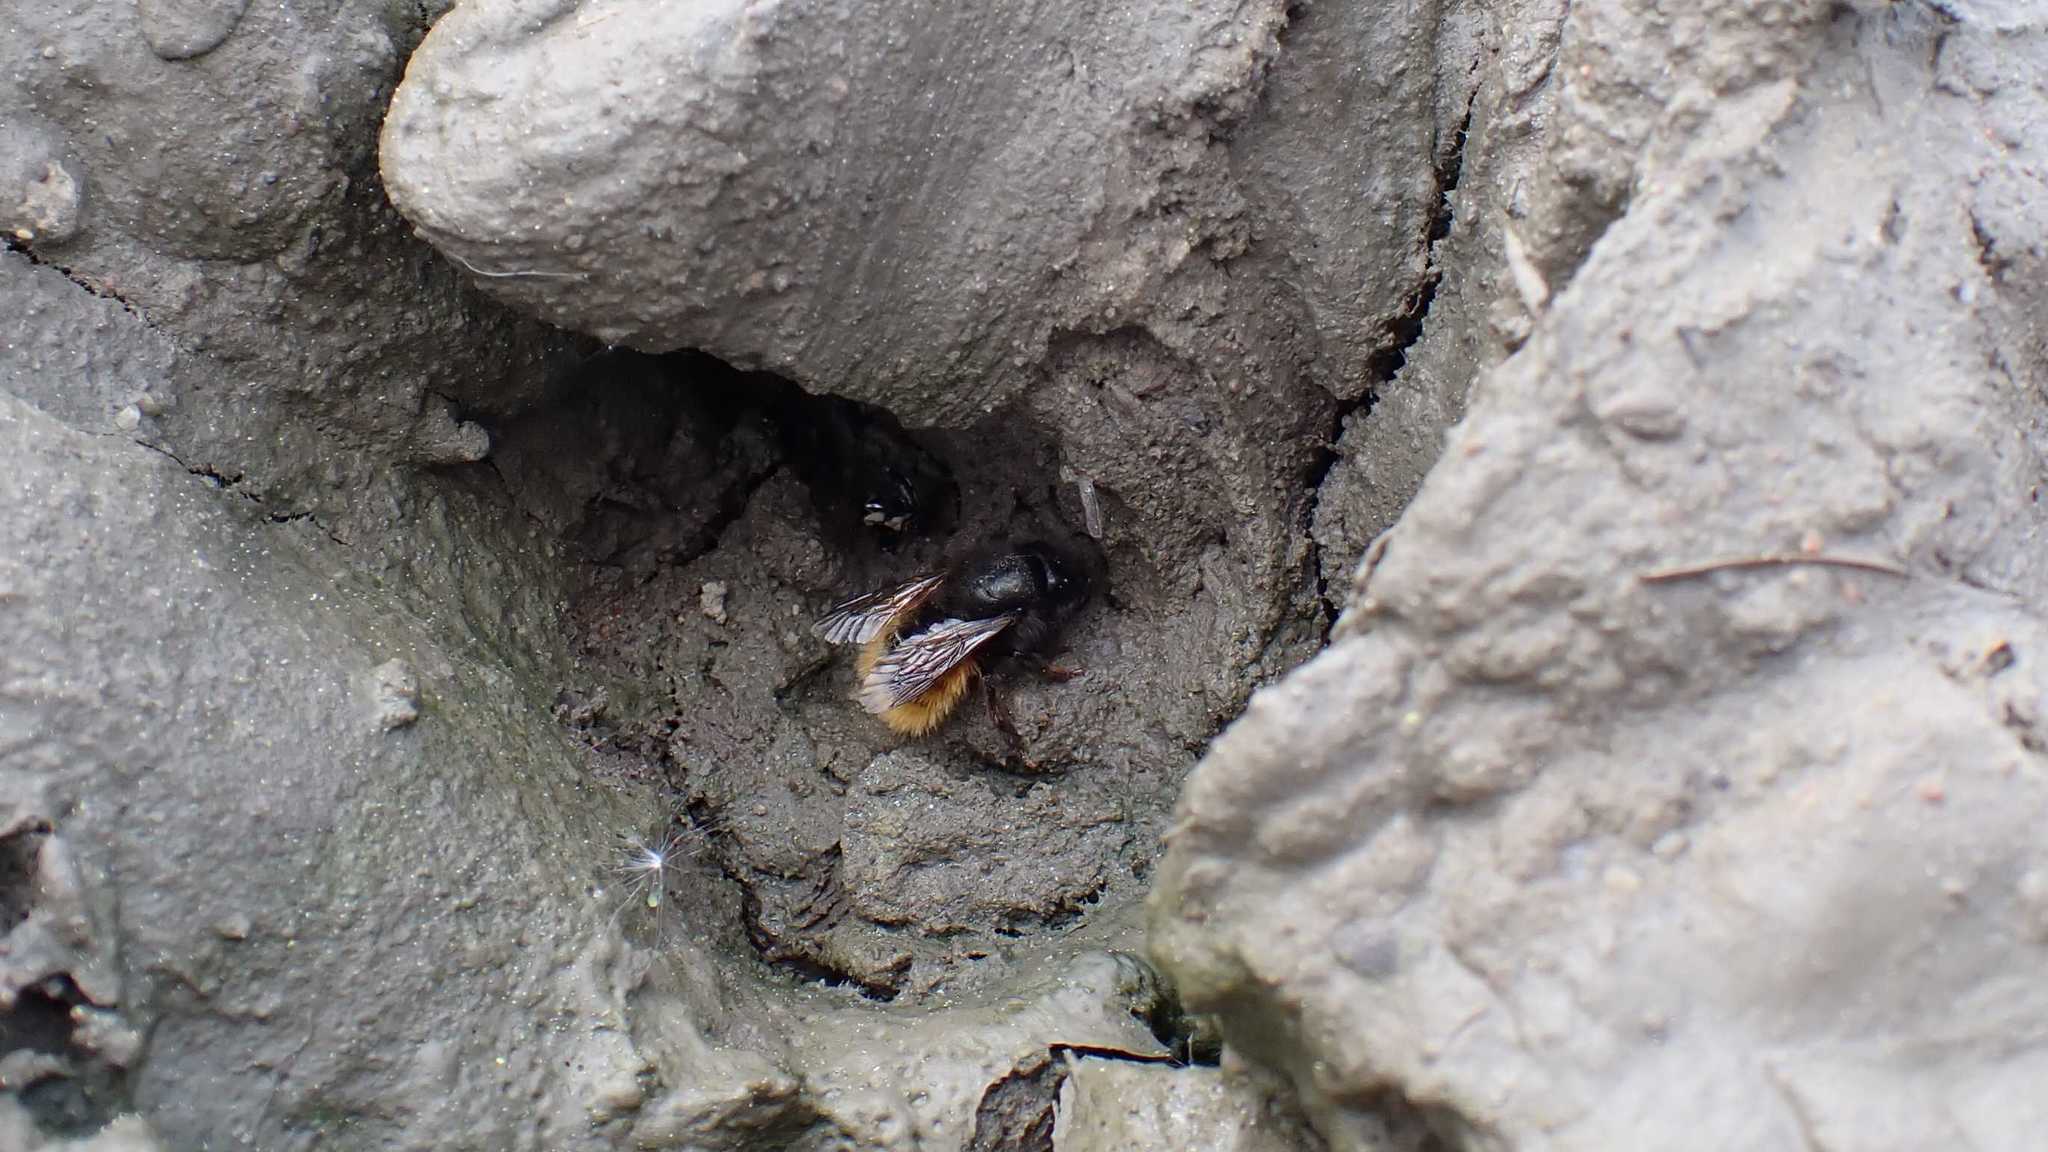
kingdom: Animalia
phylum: Arthropoda
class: Insecta
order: Hymenoptera
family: Megachilidae
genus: Osmia
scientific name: Osmia cornuta
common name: Mason bee
